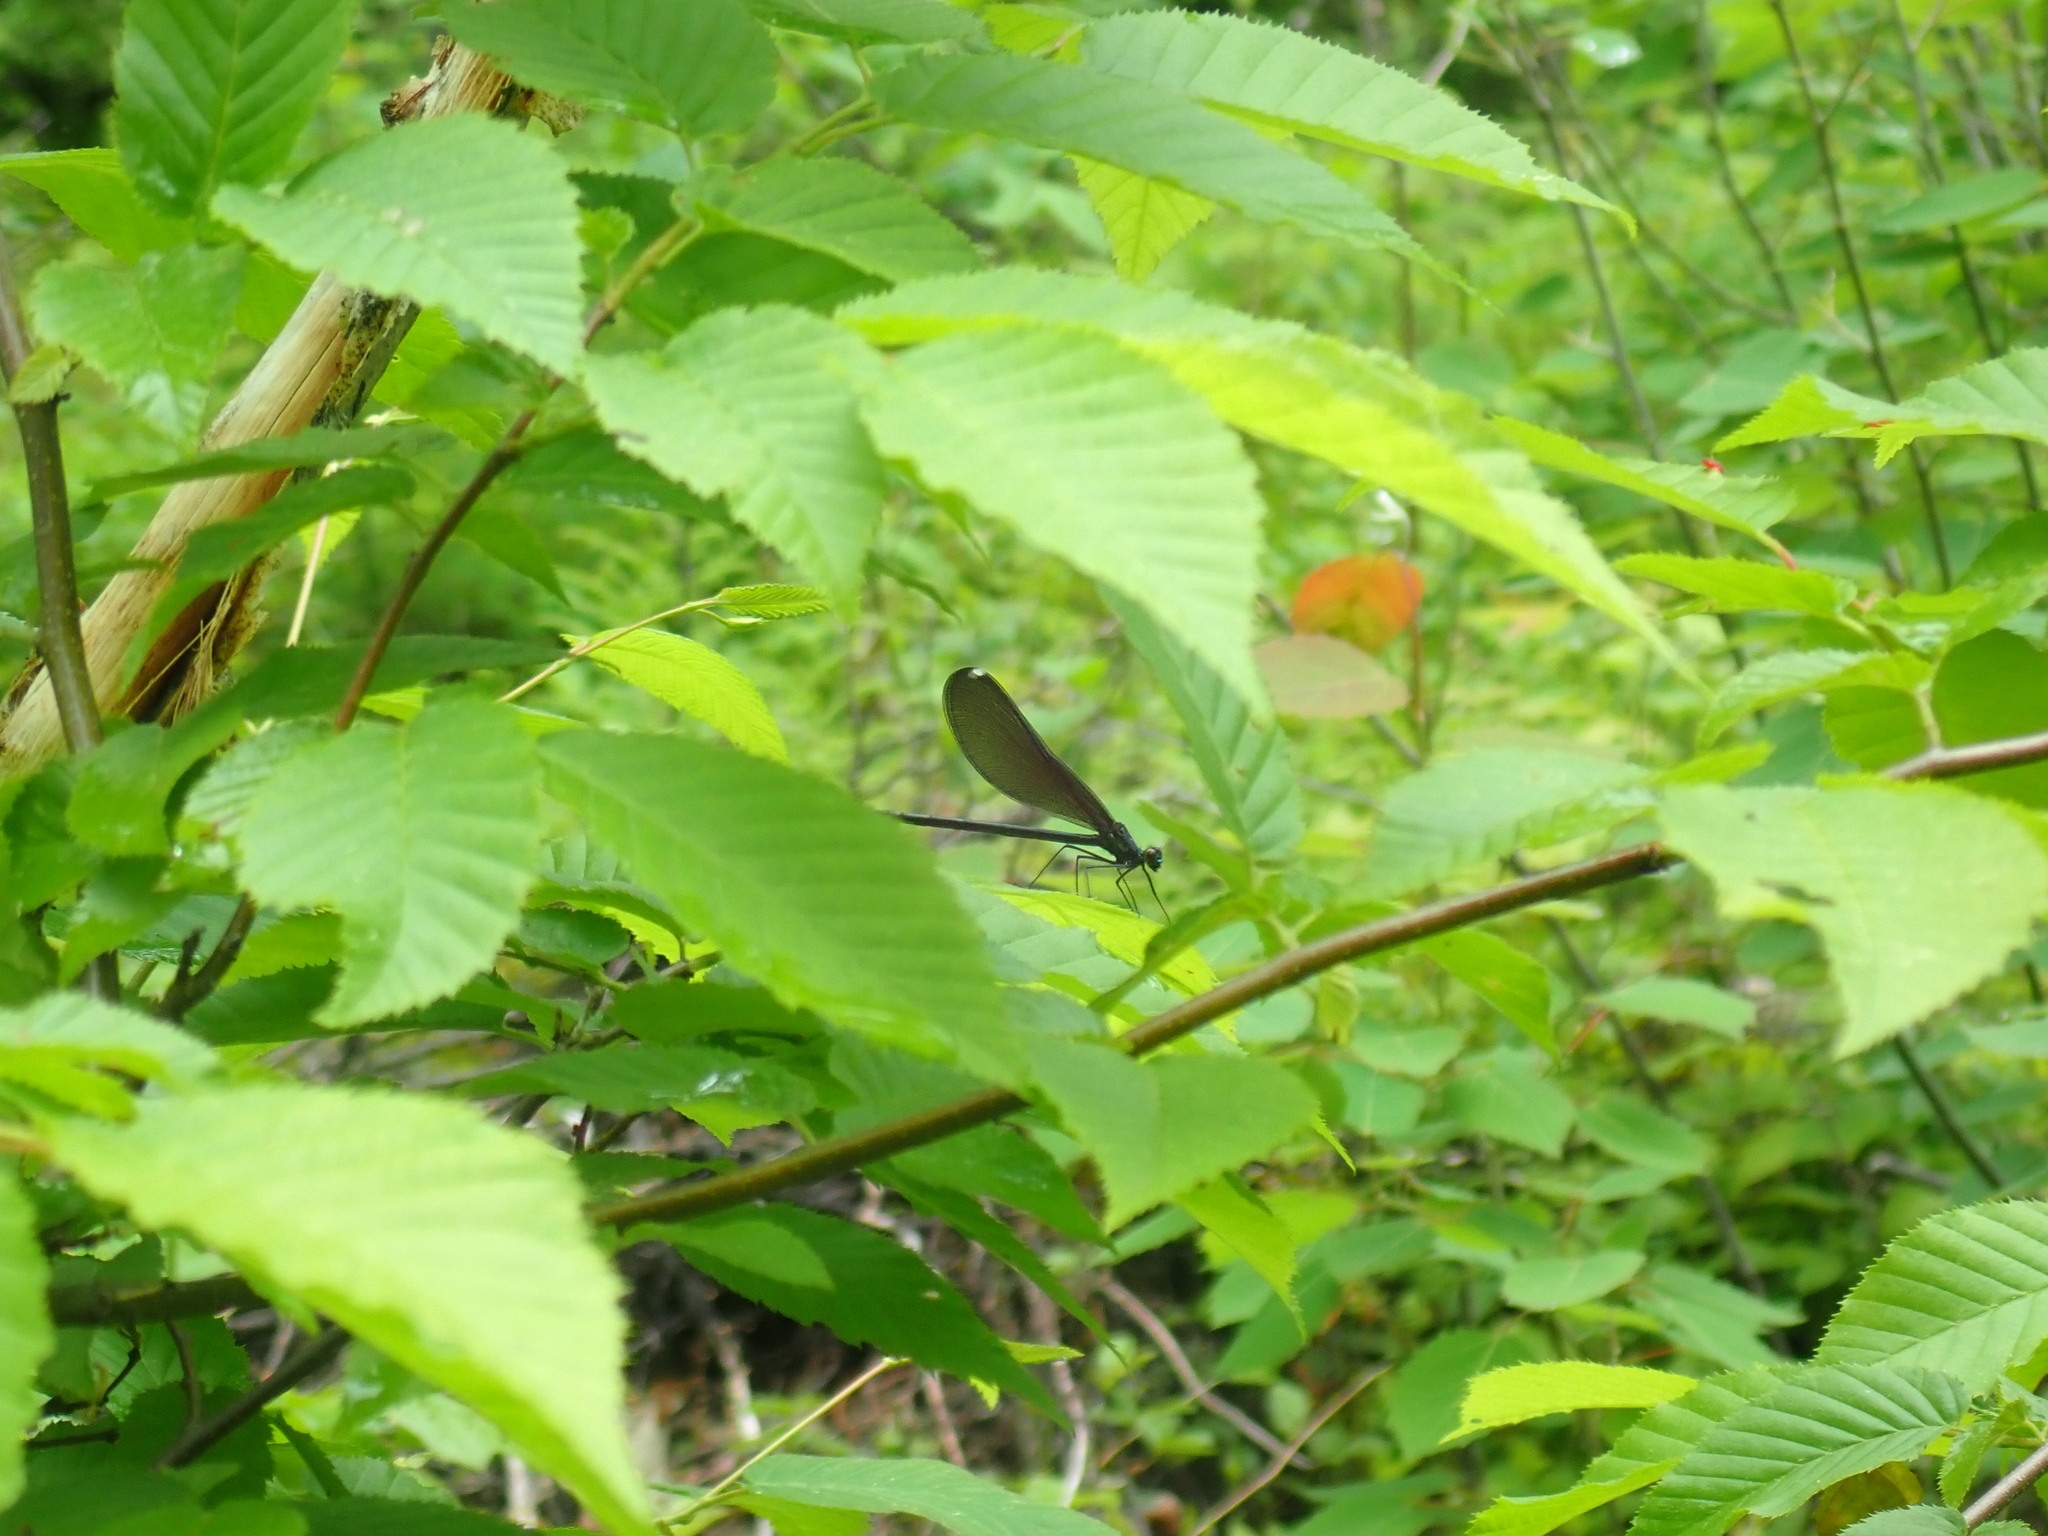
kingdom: Animalia
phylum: Arthropoda
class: Insecta
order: Odonata
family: Calopterygidae
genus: Calopteryx
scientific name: Calopteryx maculata
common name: Ebony jewelwing
